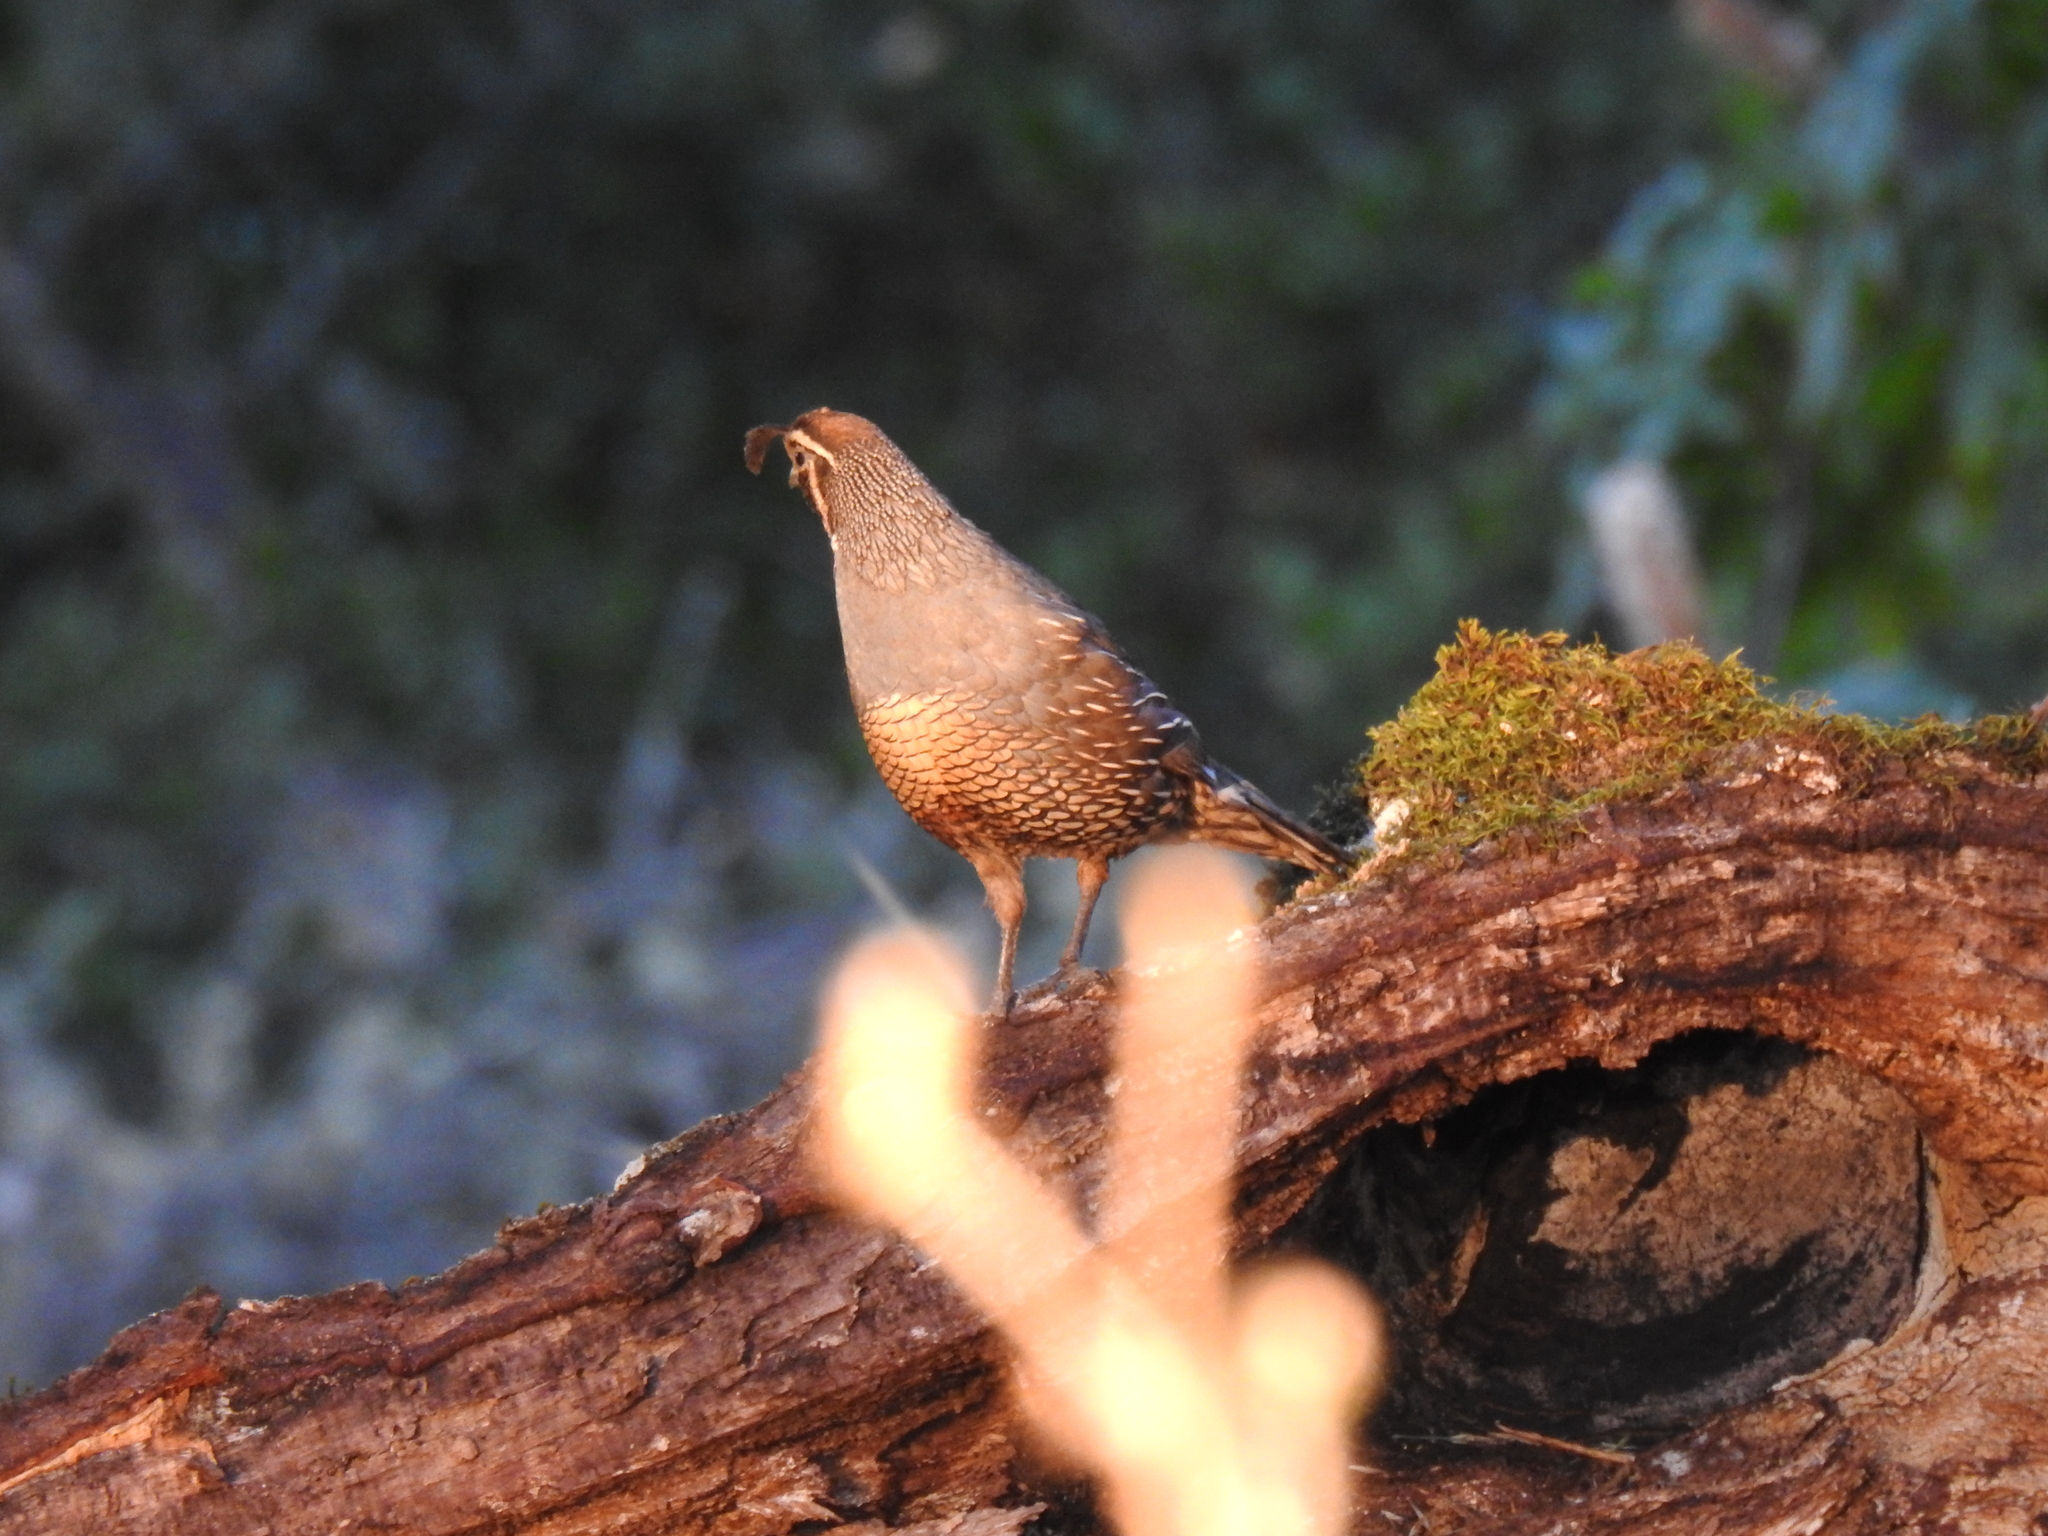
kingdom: Animalia
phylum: Chordata
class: Aves
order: Galliformes
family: Odontophoridae
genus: Callipepla
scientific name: Callipepla californica
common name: California quail
